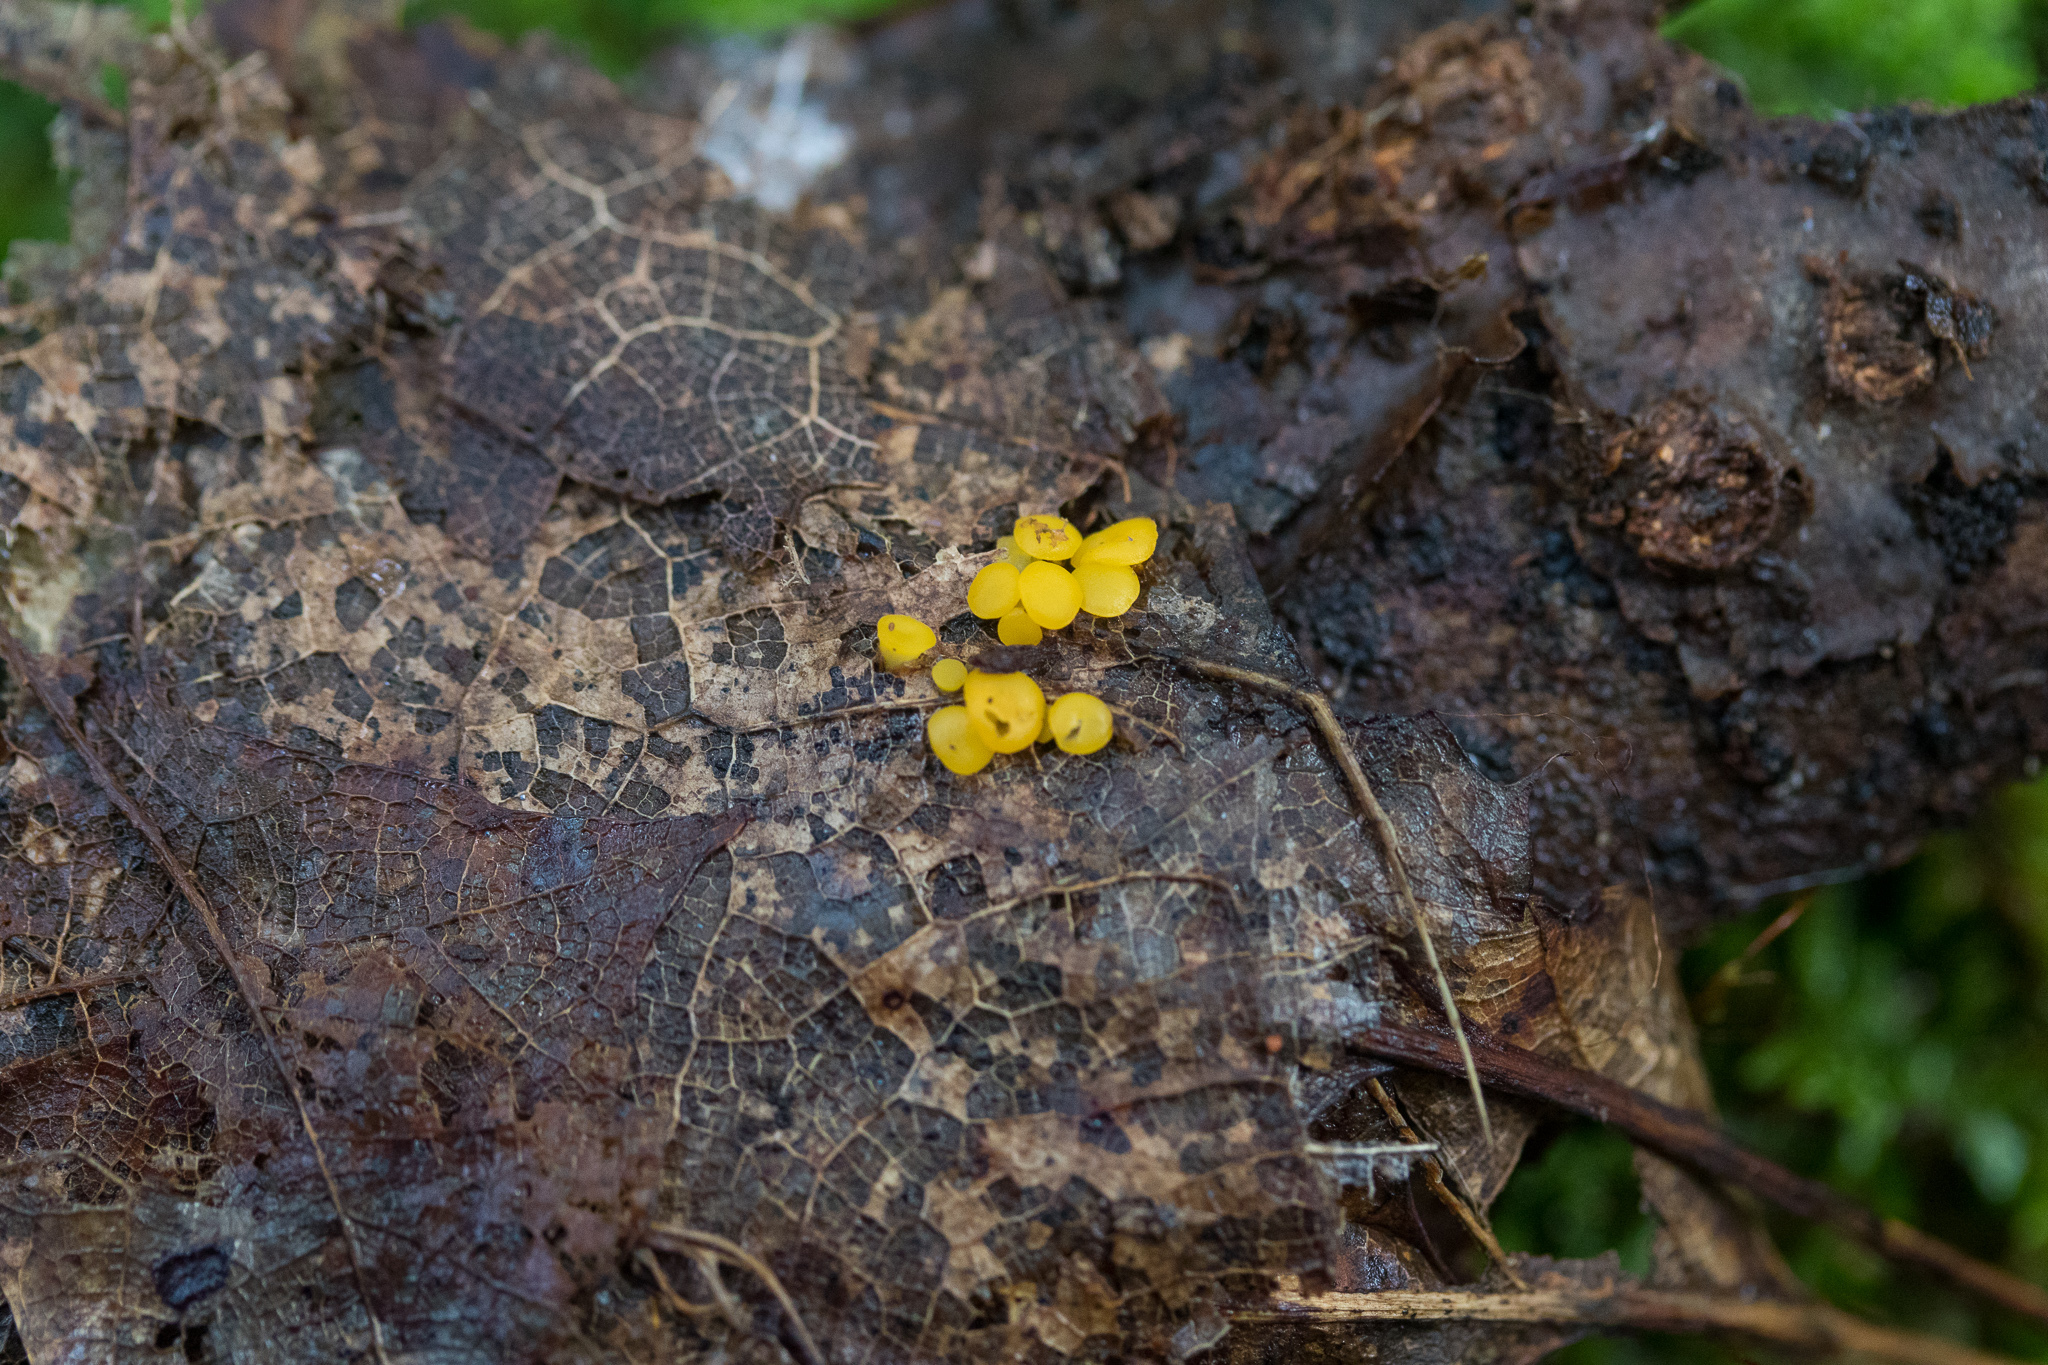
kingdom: Fungi
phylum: Ascomycota
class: Leotiomycetes
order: Helotiales
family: Helotiaceae
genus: Hymenoscyphus
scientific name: Hymenoscyphus epiphyllus
